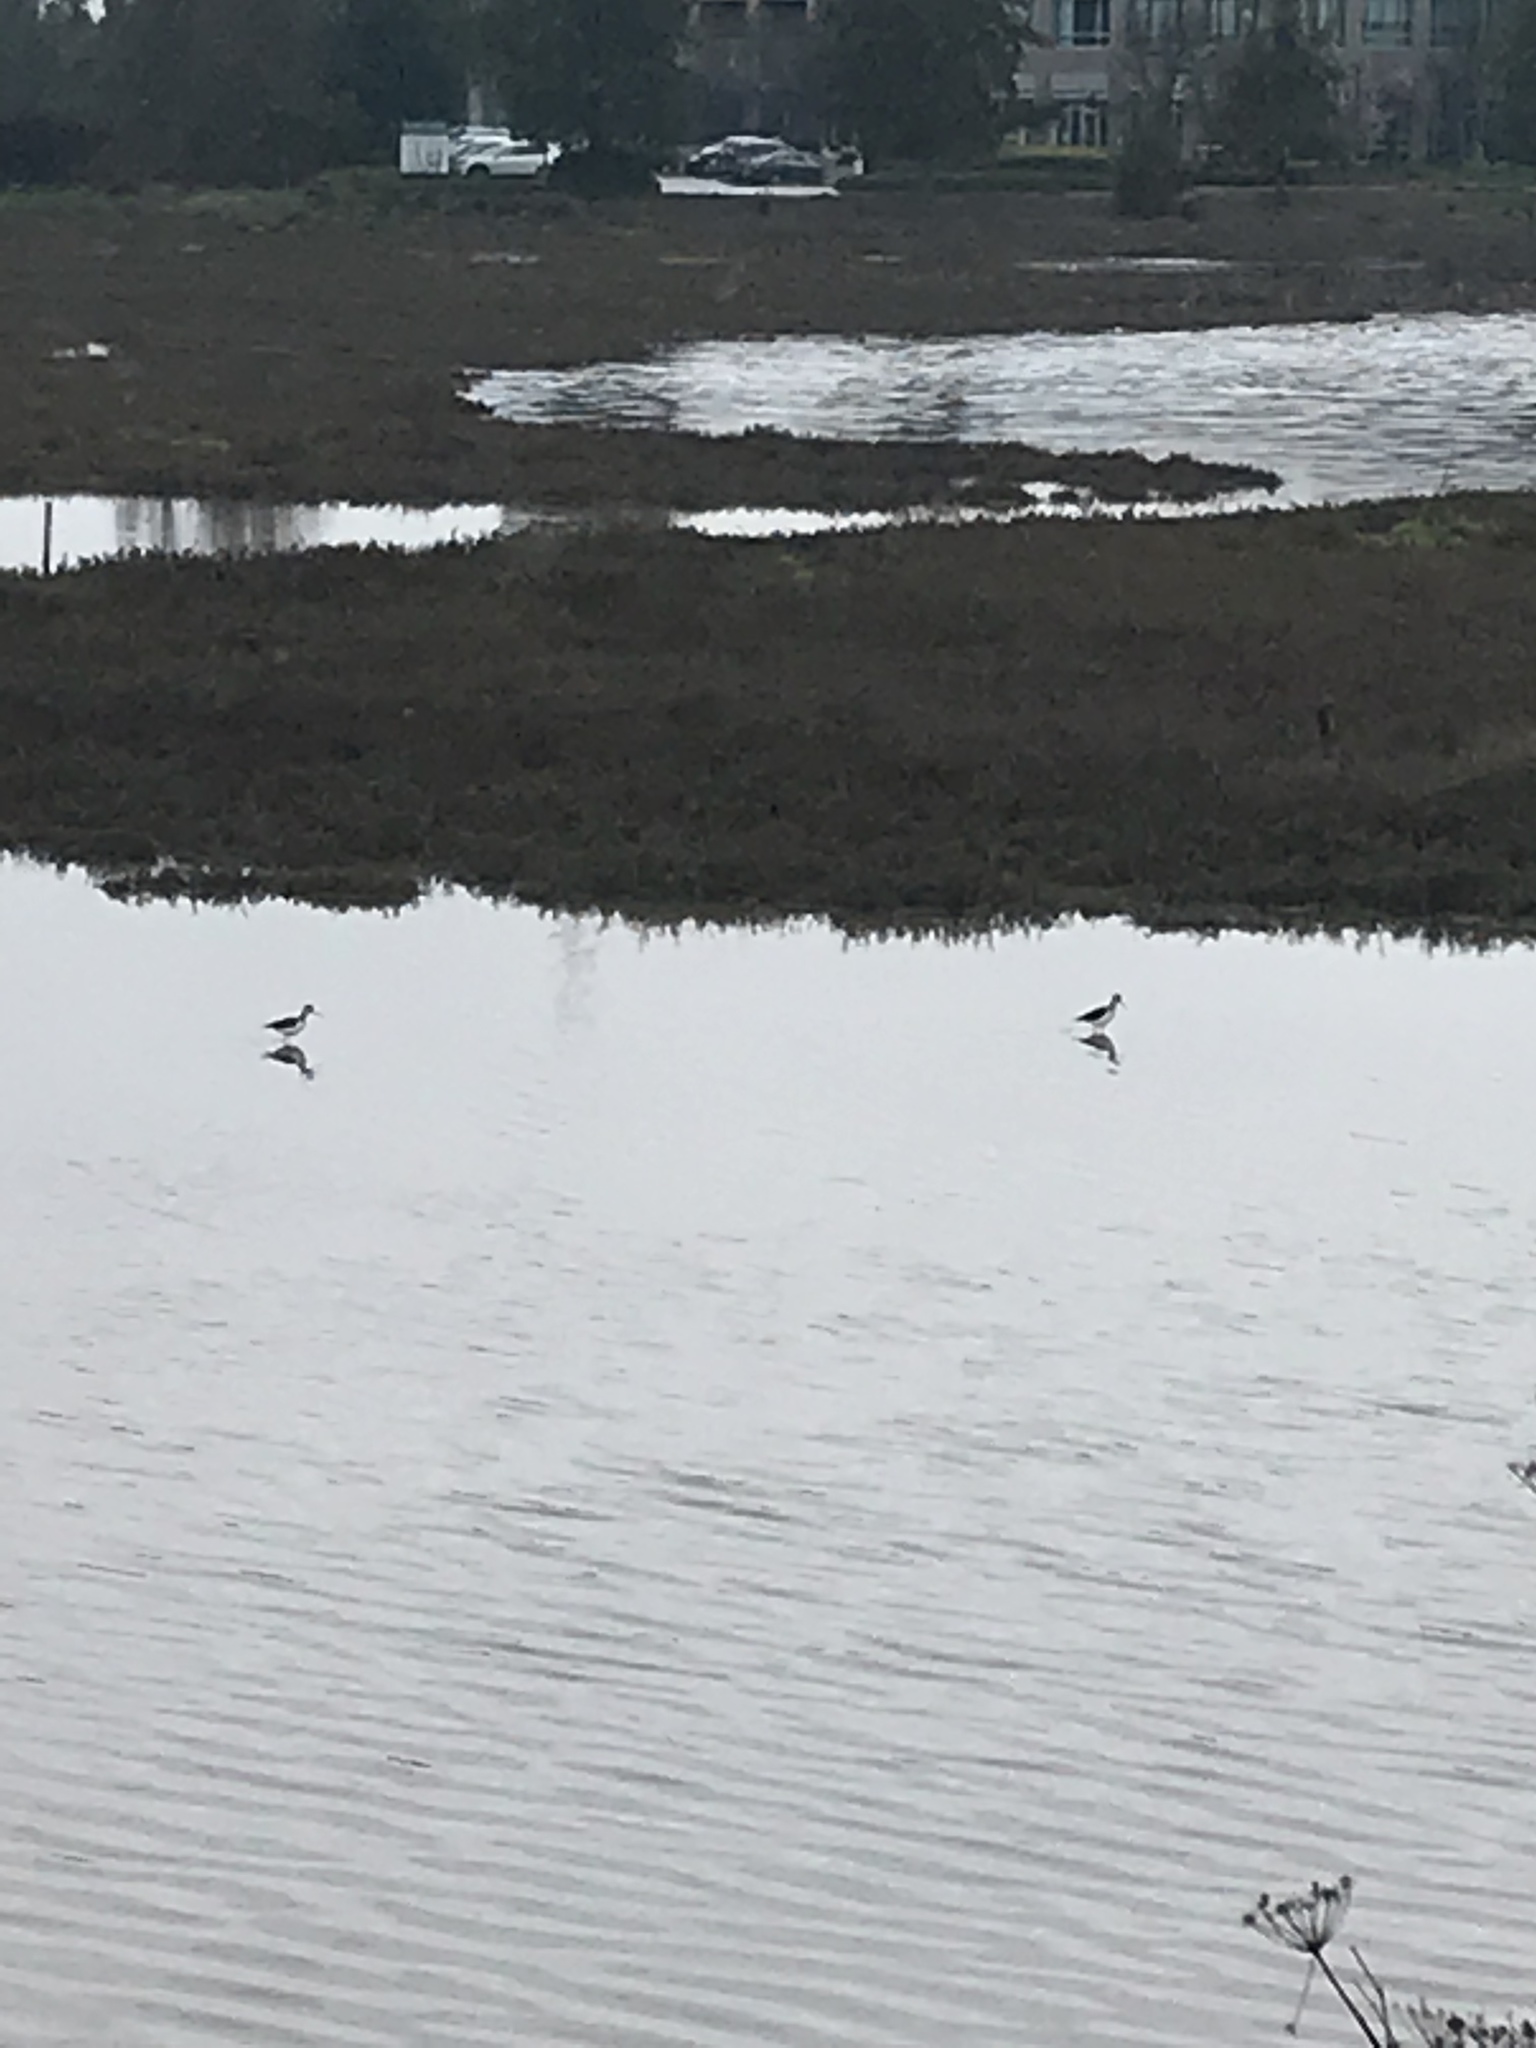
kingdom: Animalia
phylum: Chordata
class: Aves
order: Charadriiformes
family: Recurvirostridae
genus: Himantopus
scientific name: Himantopus mexicanus
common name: Black-necked stilt
